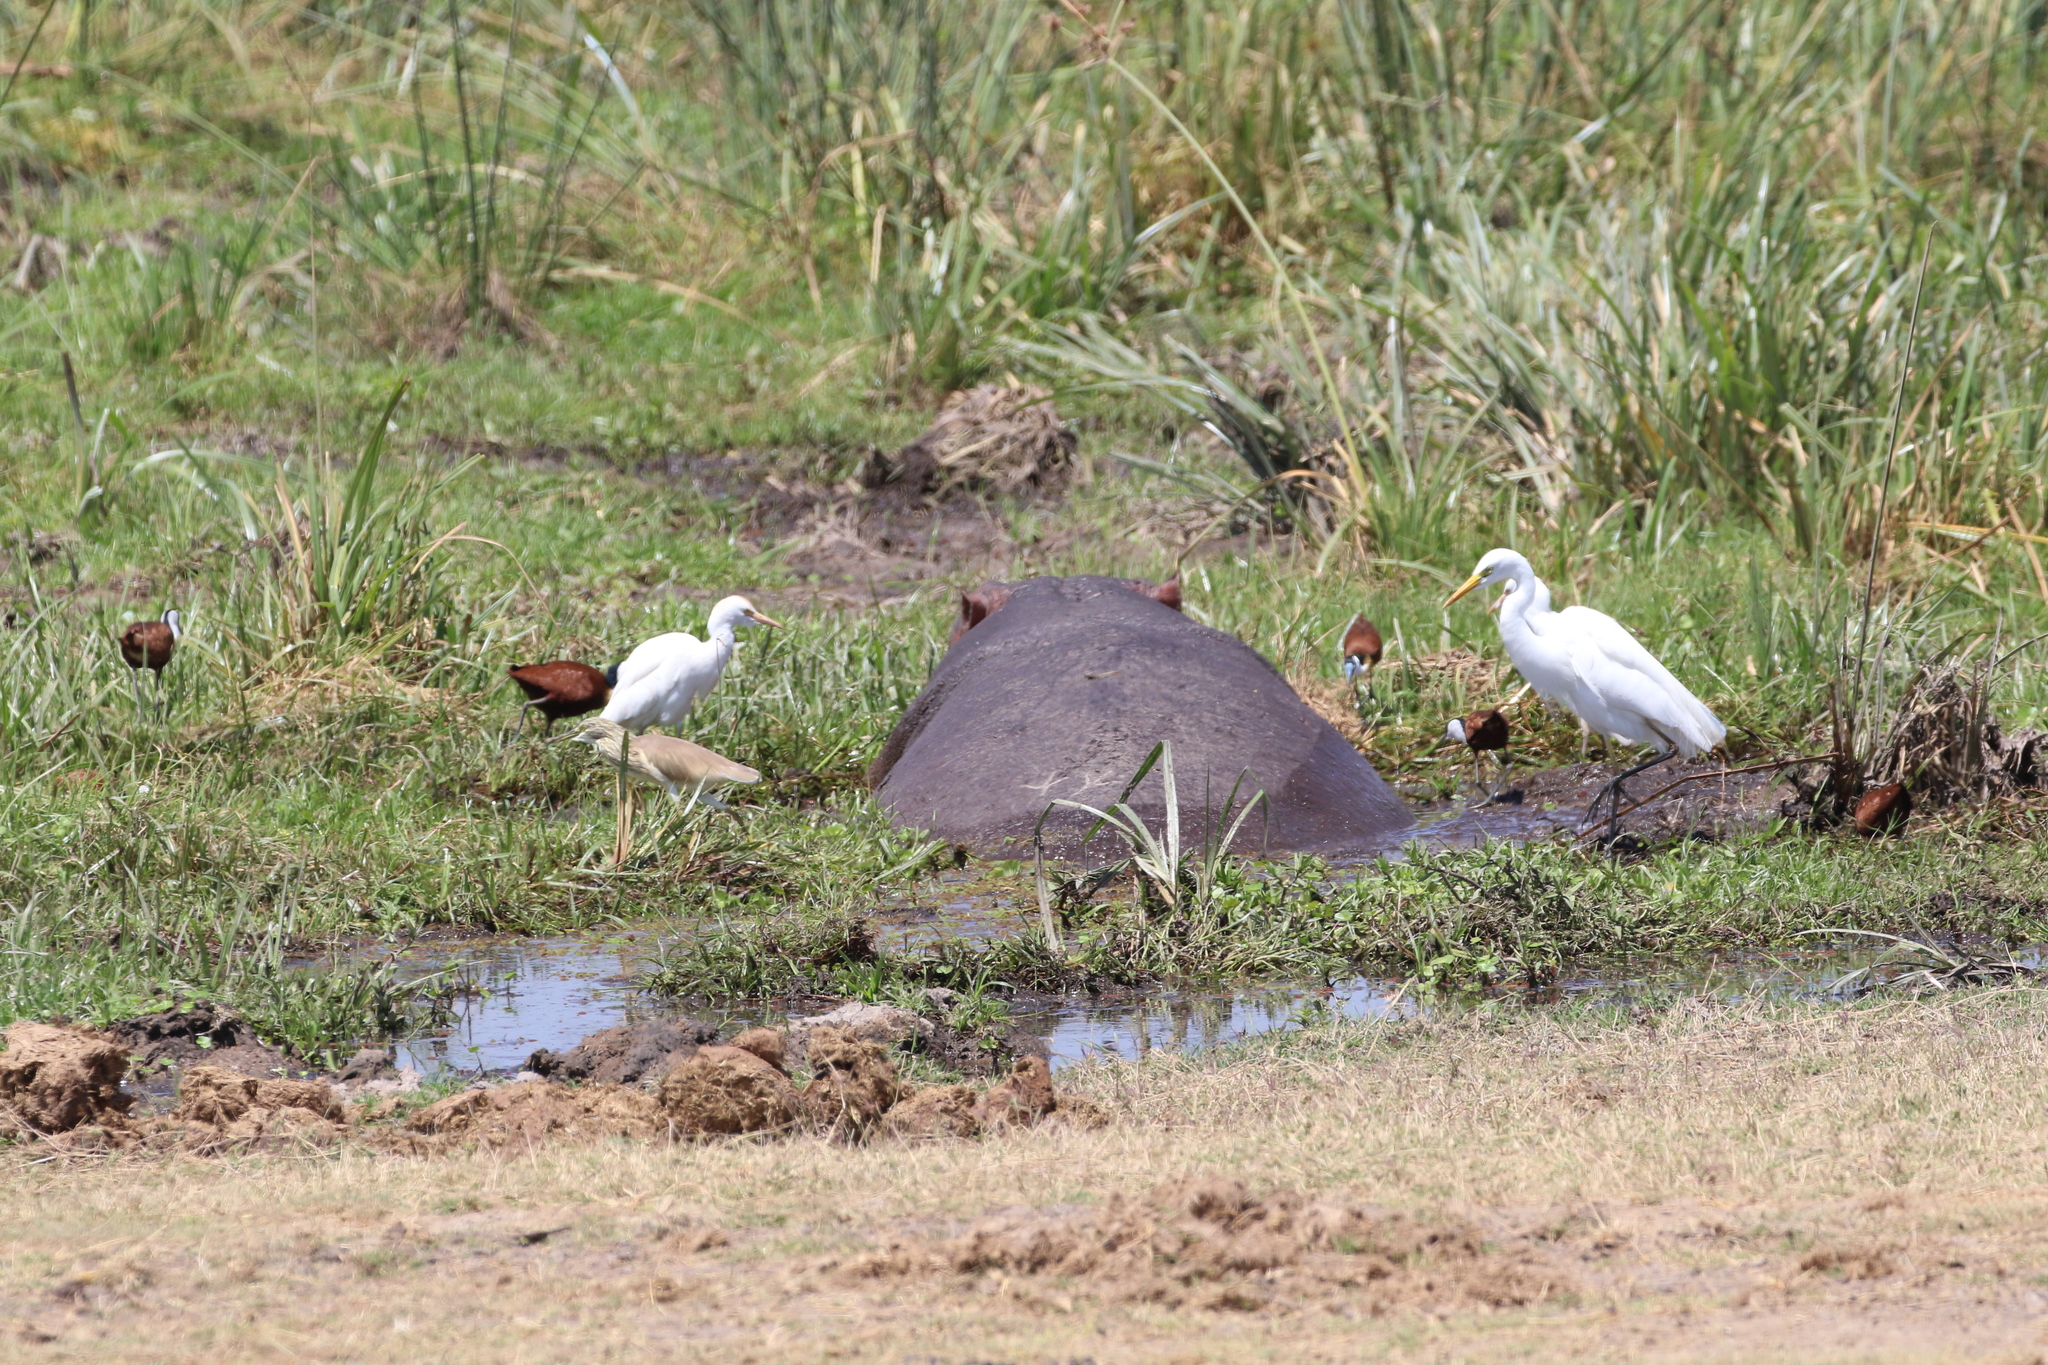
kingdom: Animalia
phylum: Chordata
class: Aves
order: Pelecaniformes
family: Ardeidae
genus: Egretta
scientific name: Egretta intermedia
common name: Intermediate egret
